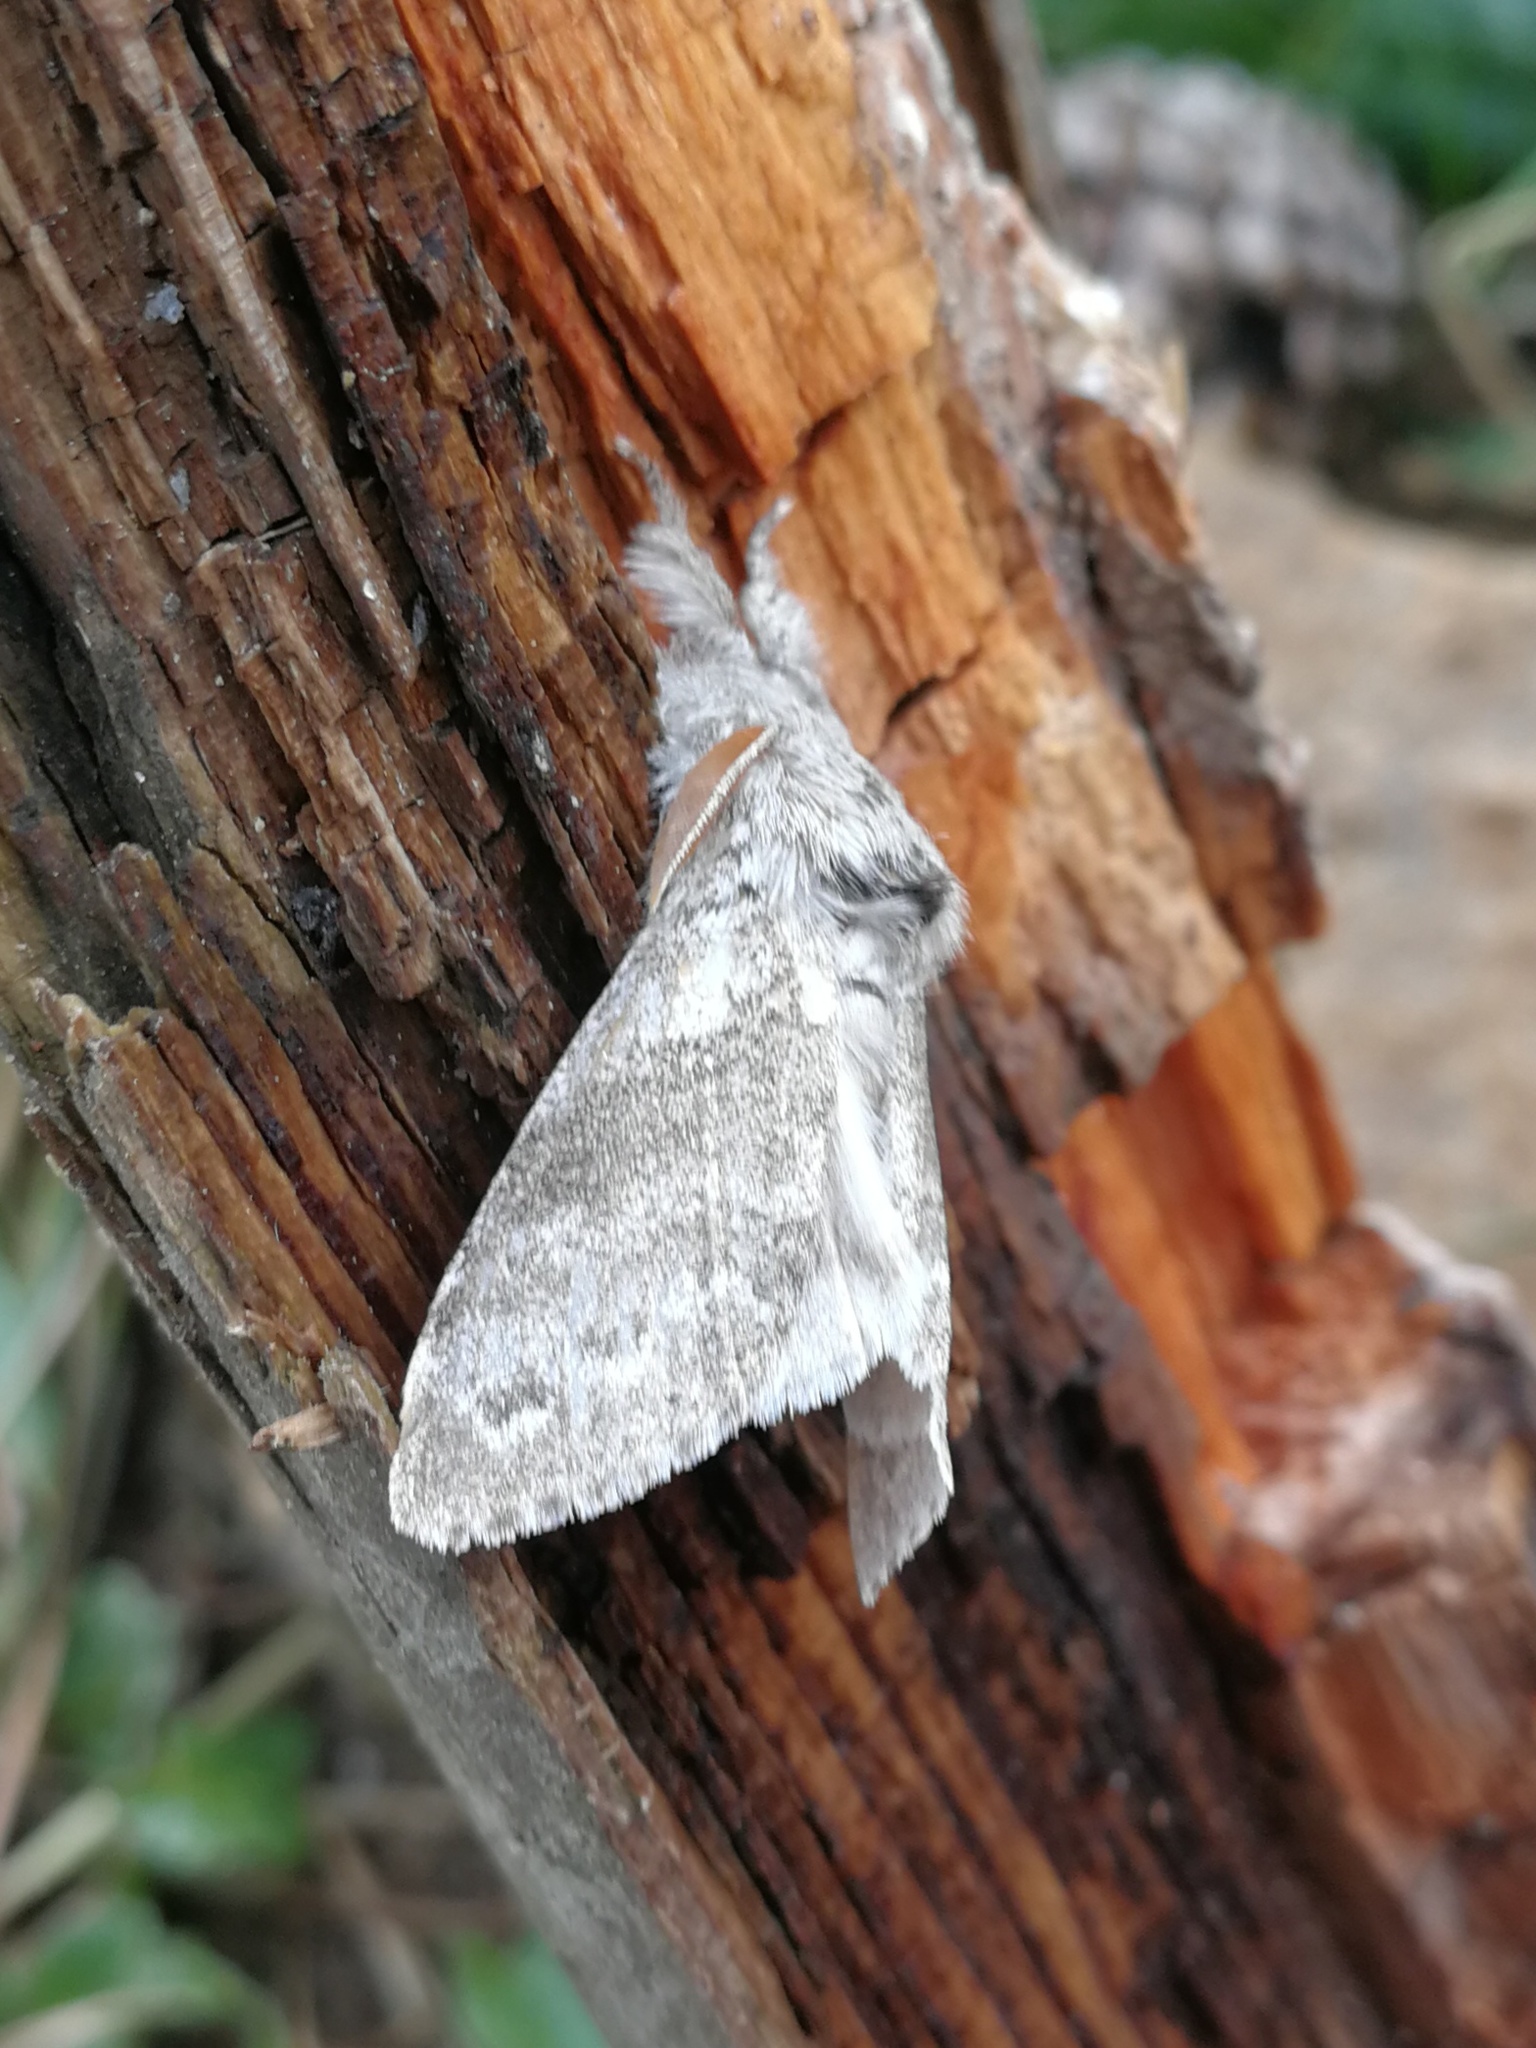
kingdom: Animalia
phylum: Arthropoda
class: Insecta
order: Lepidoptera
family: Erebidae
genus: Calliteara
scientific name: Calliteara pudibunda
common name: Pale tussock
